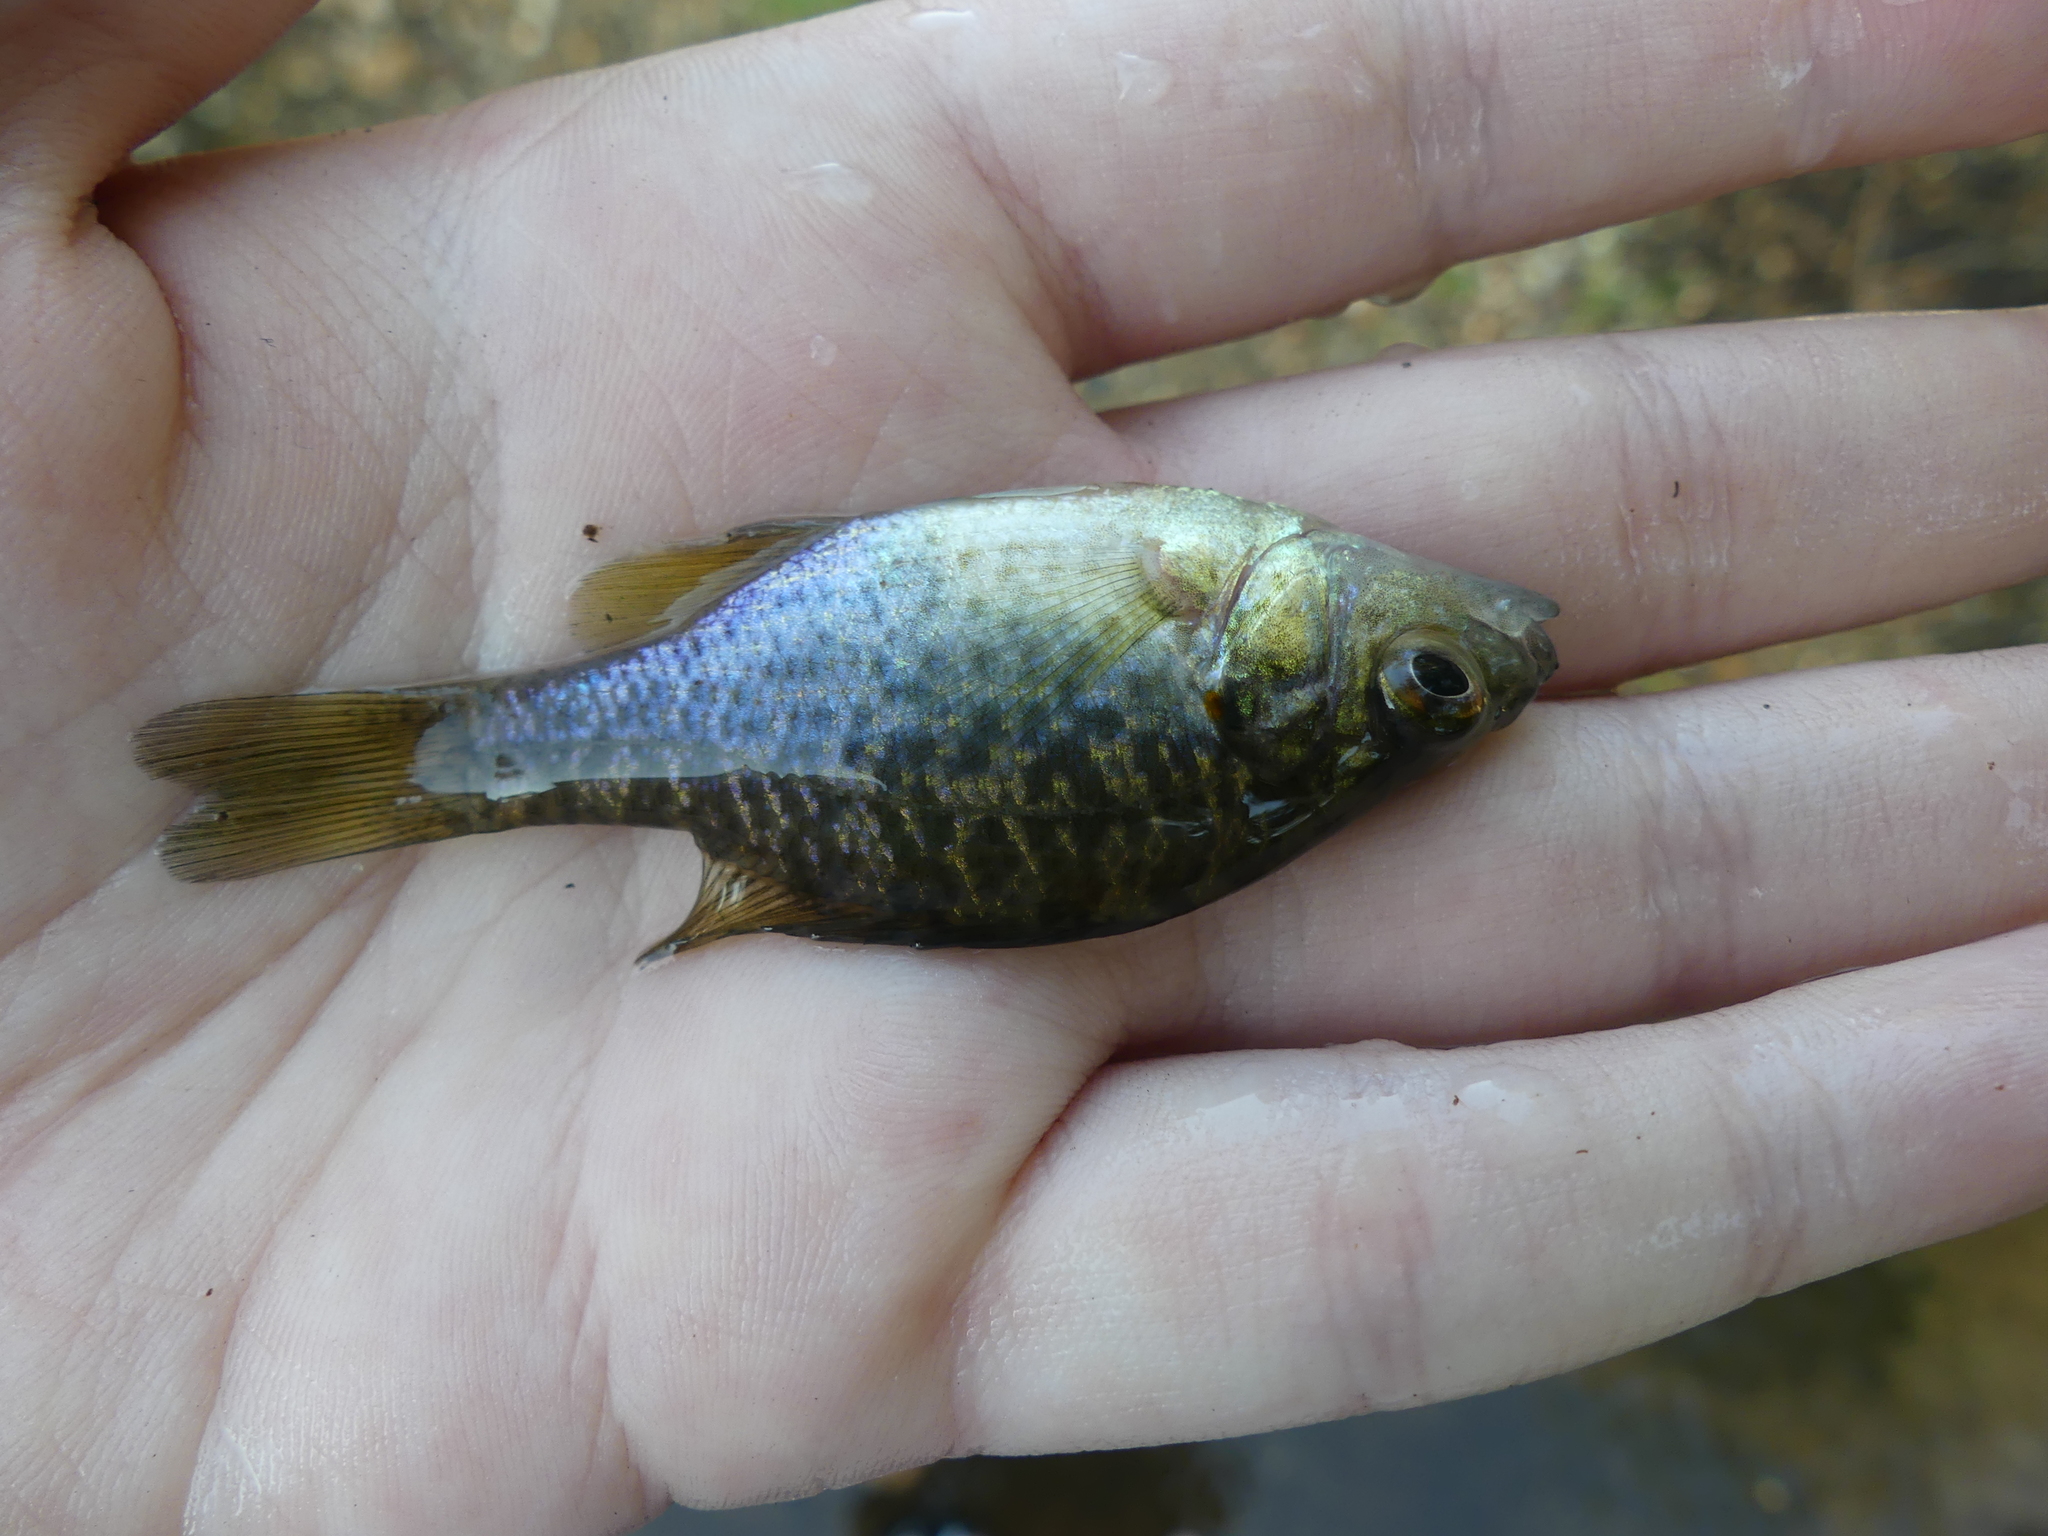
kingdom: Animalia
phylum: Chordata
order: Perciformes
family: Centrarchidae
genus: Lepomis
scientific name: Lepomis microlophus
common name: Redear sunfish
